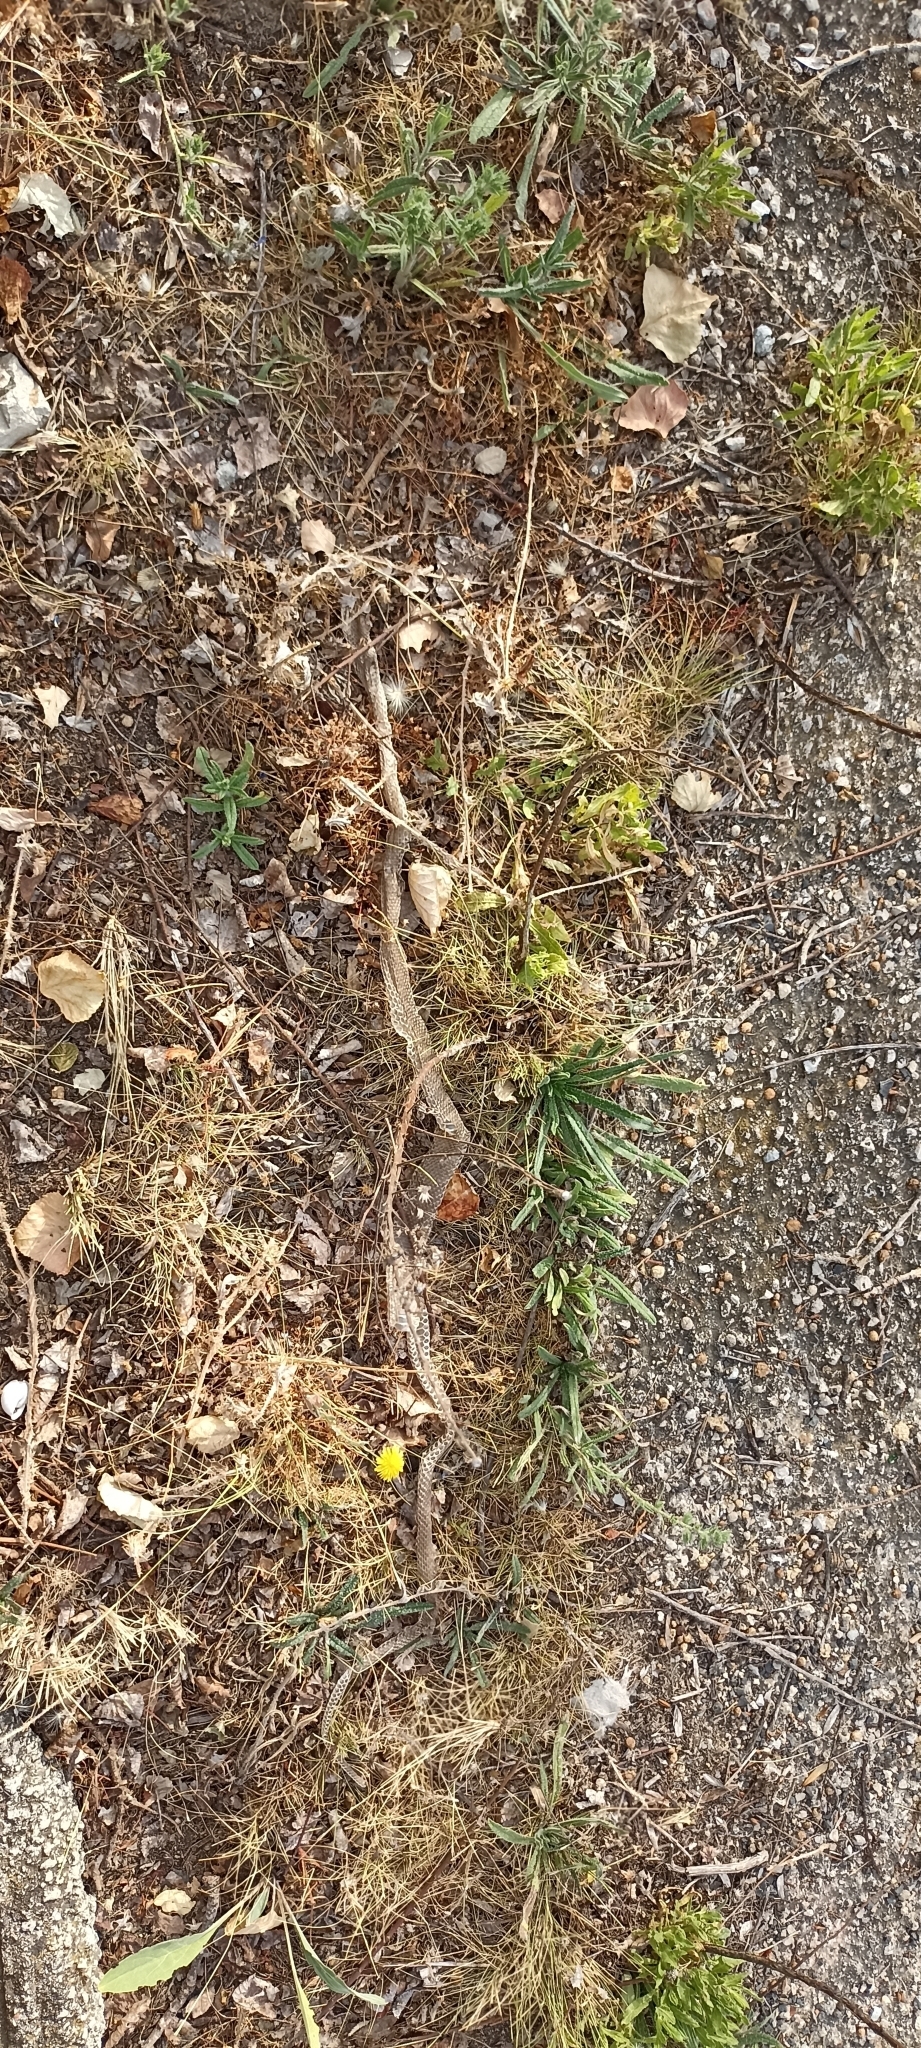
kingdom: Animalia
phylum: Chordata
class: Squamata
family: Psammophiidae
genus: Malpolon
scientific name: Malpolon monspessulanus
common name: Montpellier snake
